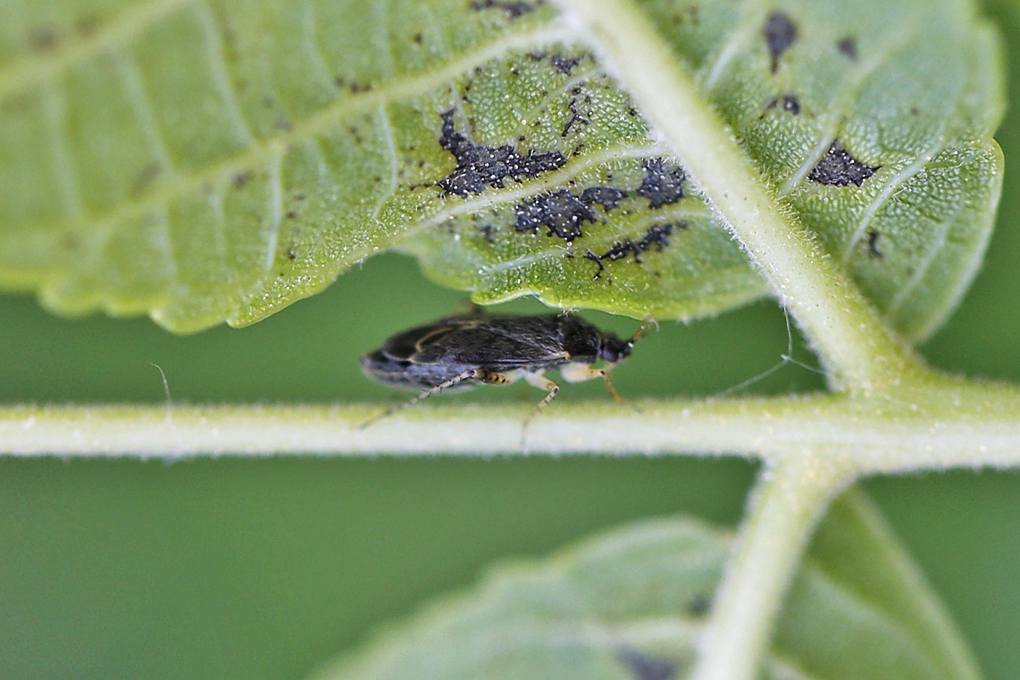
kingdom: Animalia
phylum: Arthropoda
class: Insecta
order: Hemiptera
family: Miridae
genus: Plagiognathus
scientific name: Plagiognathus albatus
